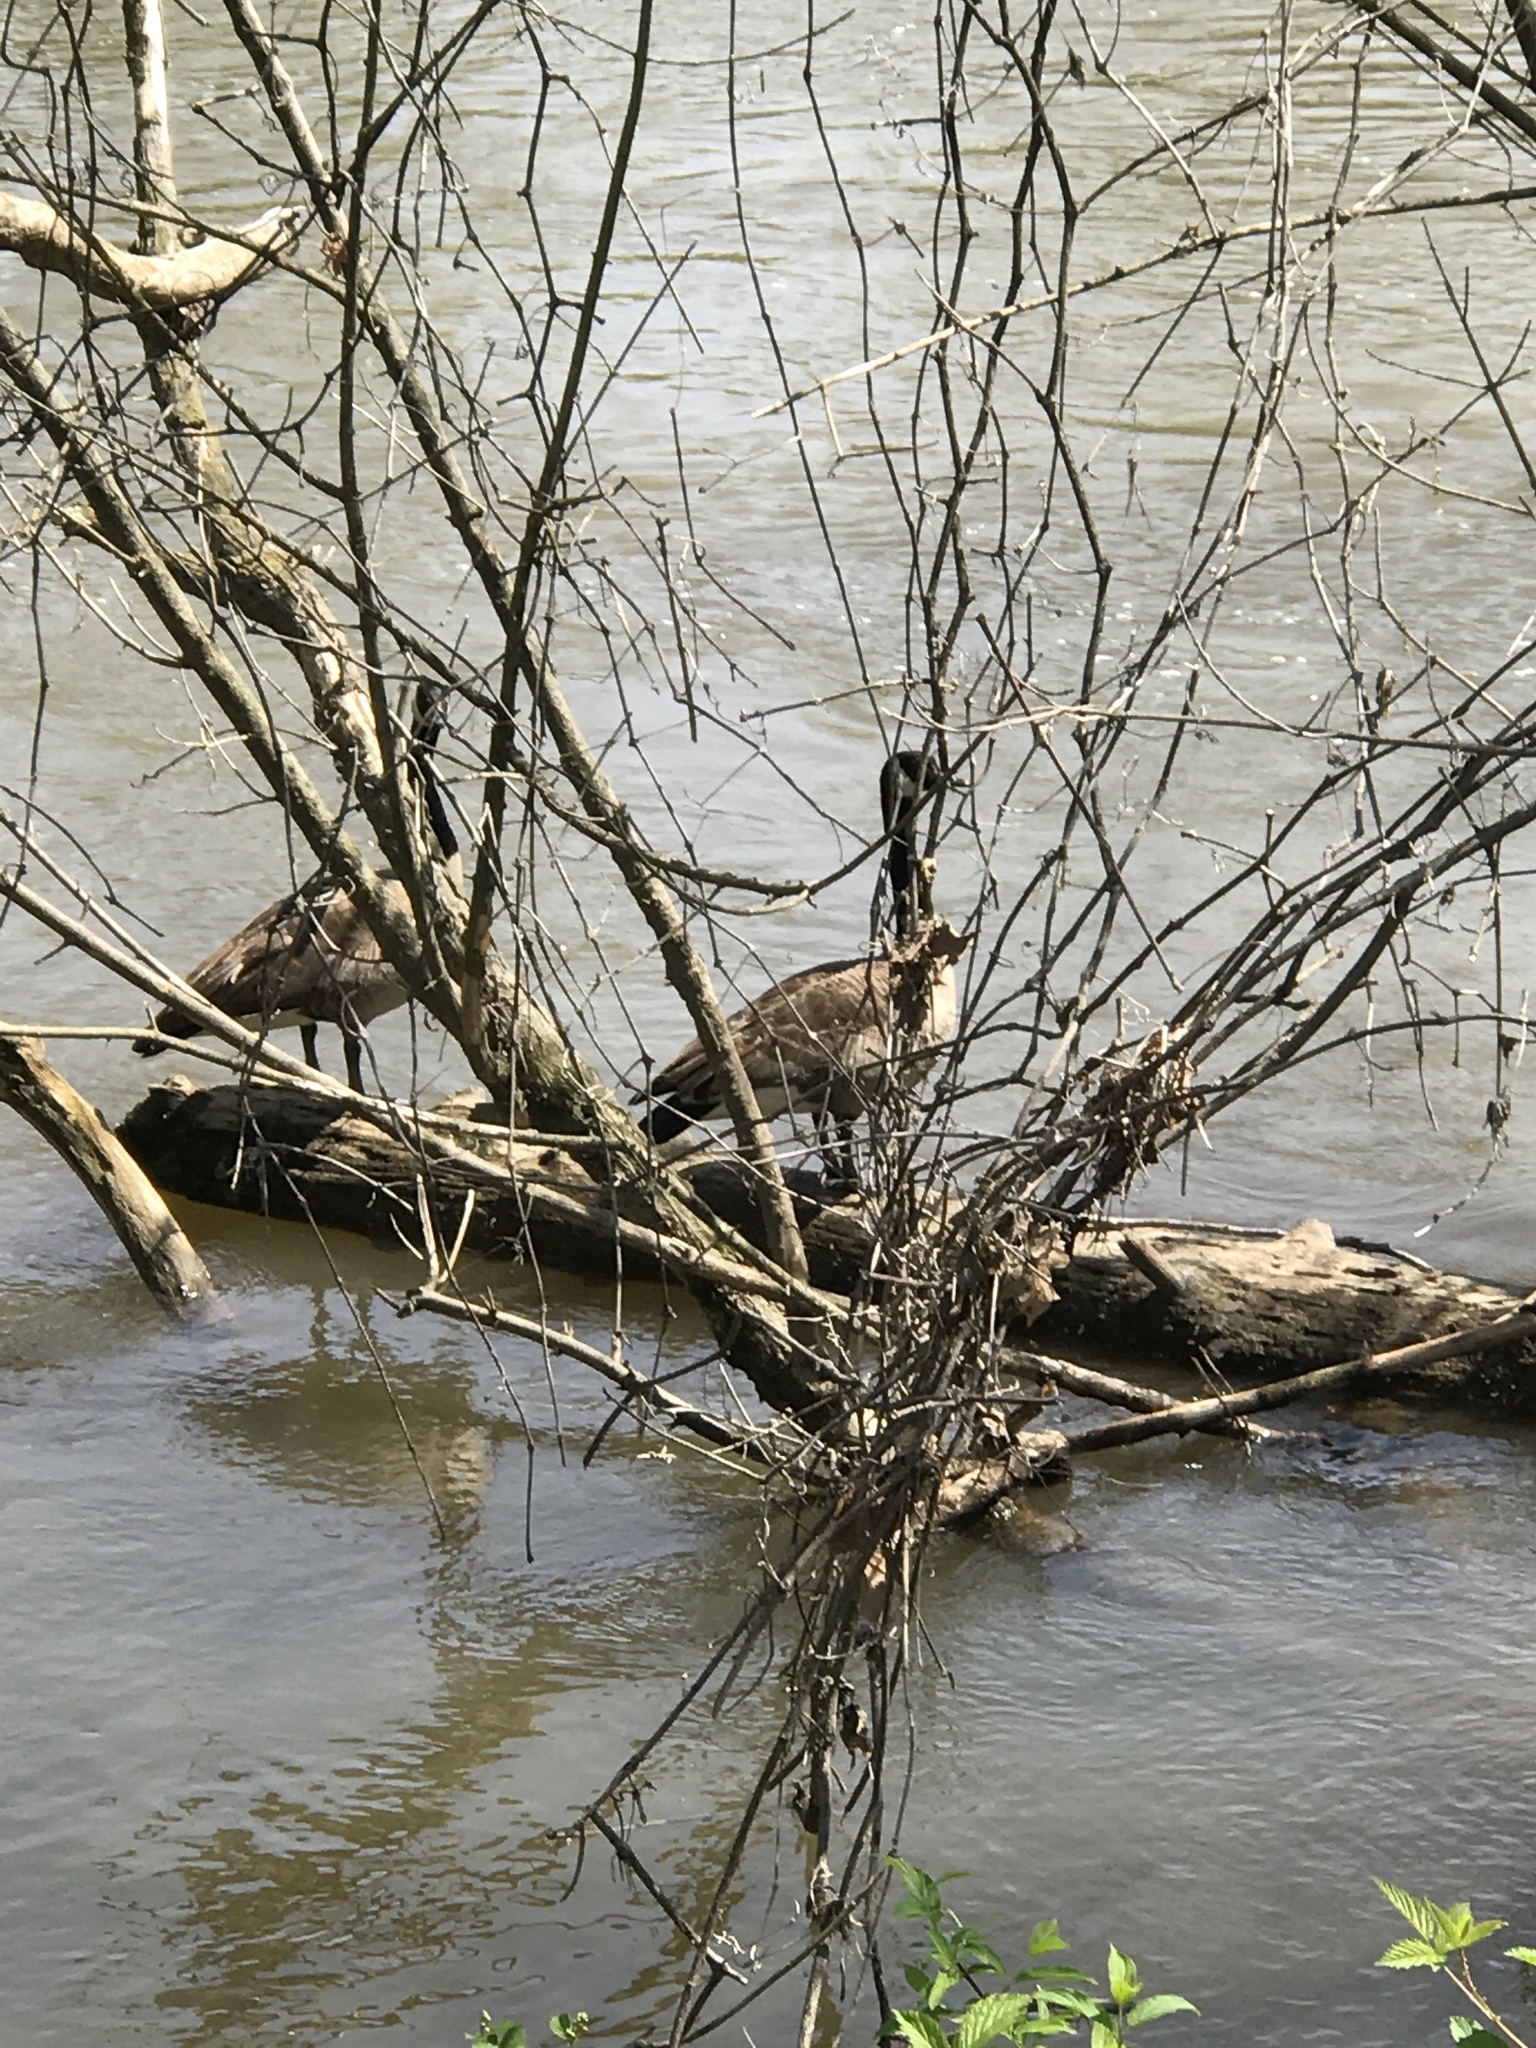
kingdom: Animalia
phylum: Chordata
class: Aves
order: Anseriformes
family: Anatidae
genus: Branta
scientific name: Branta canadensis
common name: Canada goose
